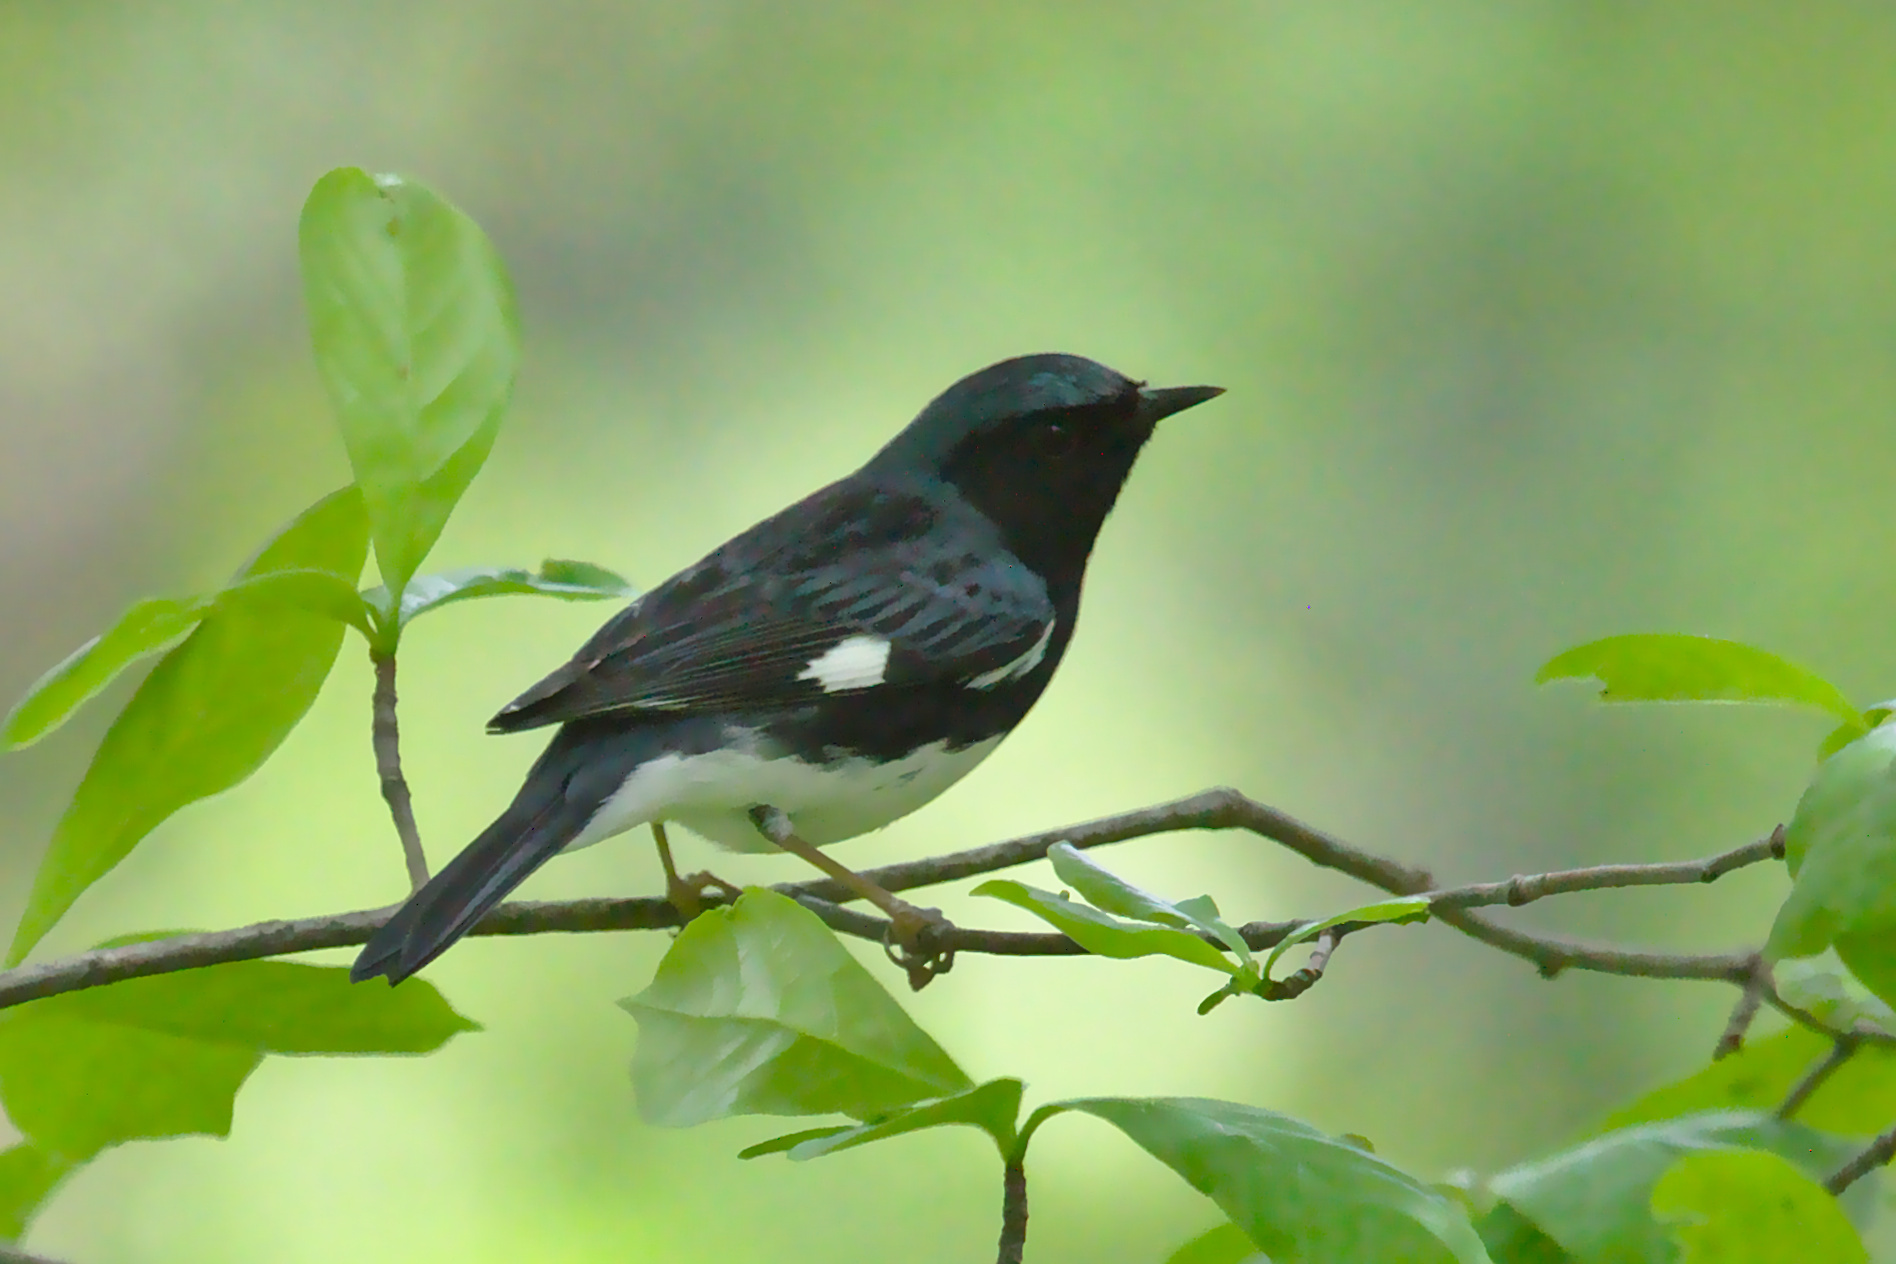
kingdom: Animalia
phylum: Chordata
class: Aves
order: Passeriformes
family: Parulidae
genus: Setophaga
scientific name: Setophaga caerulescens
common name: Black-throated blue warbler
